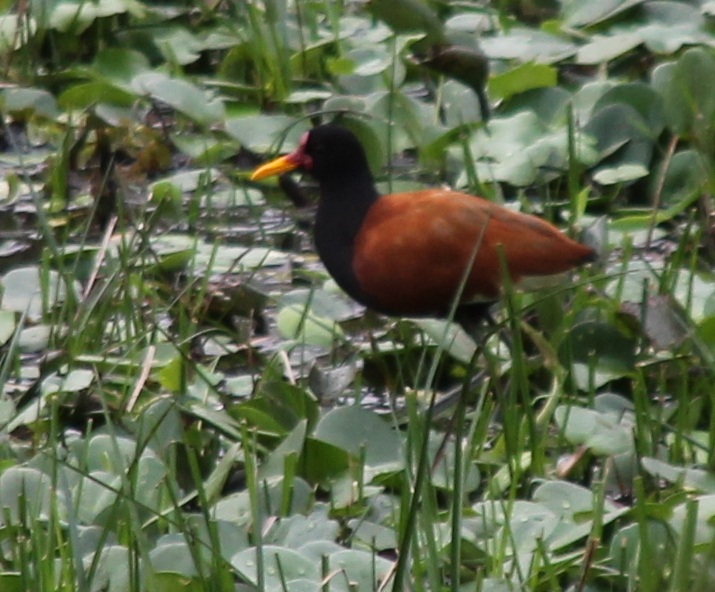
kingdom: Animalia
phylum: Chordata
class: Aves
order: Charadriiformes
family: Jacanidae
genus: Jacana
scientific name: Jacana jacana
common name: Wattled jacana
